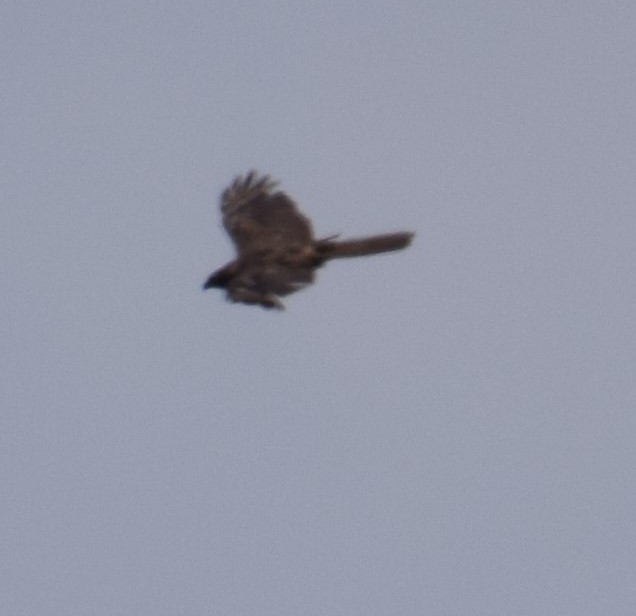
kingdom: Animalia
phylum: Chordata
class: Aves
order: Accipitriformes
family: Accipitridae
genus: Accipiter
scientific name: Accipiter fasciatus
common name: Brown goshawk
